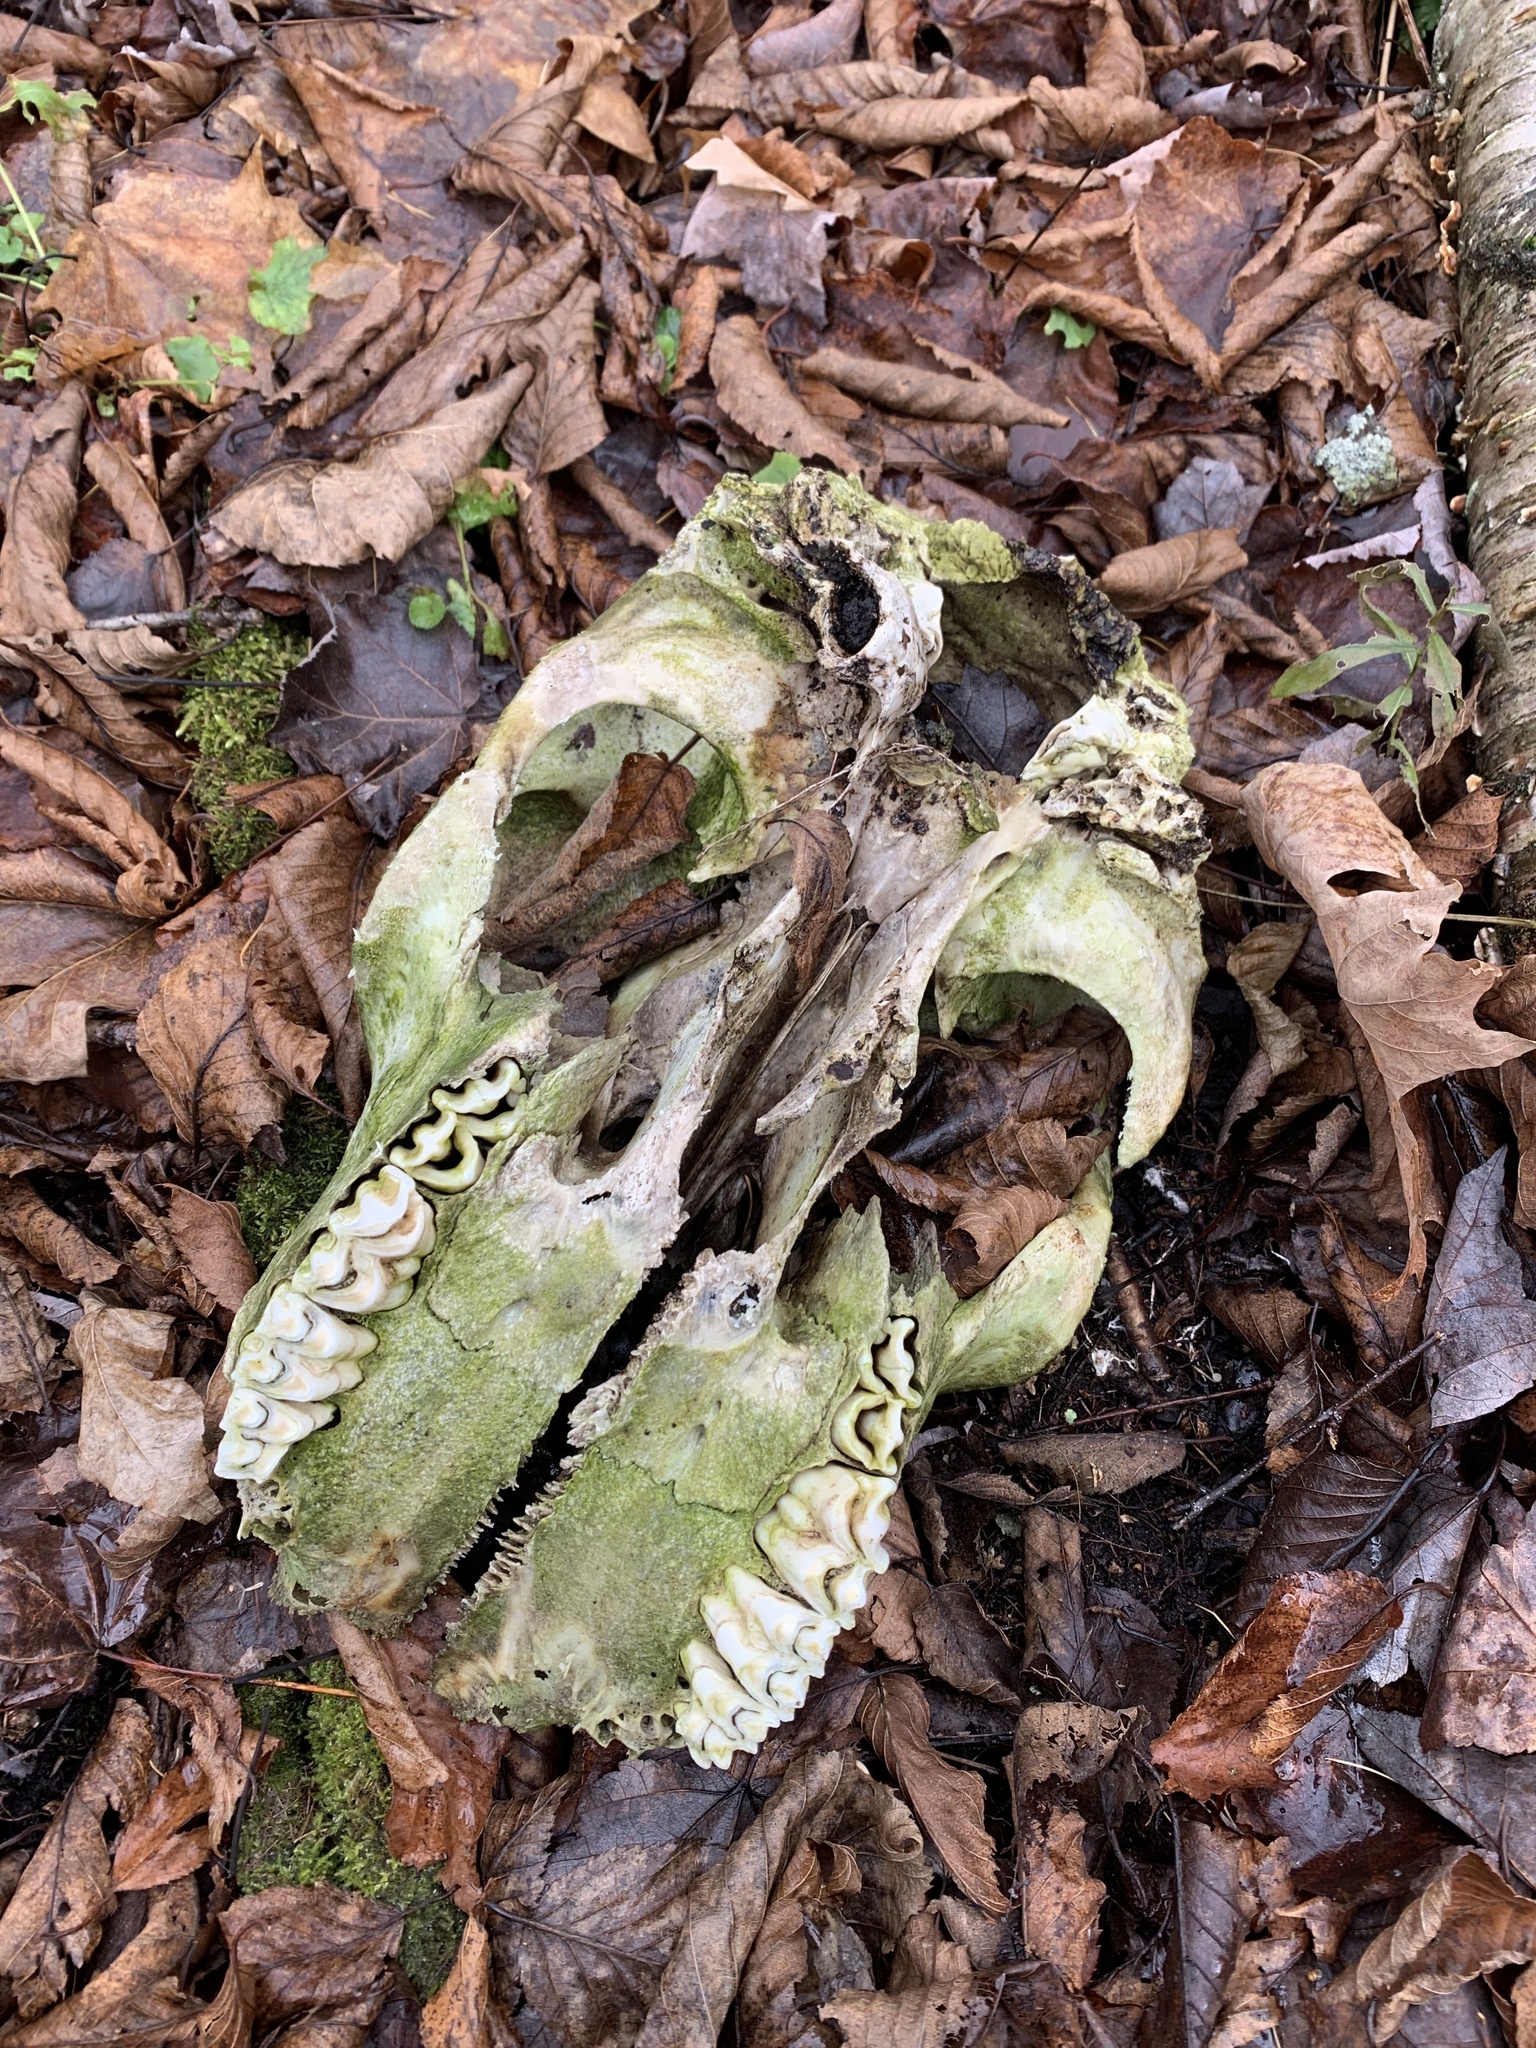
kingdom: Animalia
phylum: Chordata
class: Mammalia
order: Artiodactyla
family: Cervidae
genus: Alces
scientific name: Alces alces
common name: Moose
